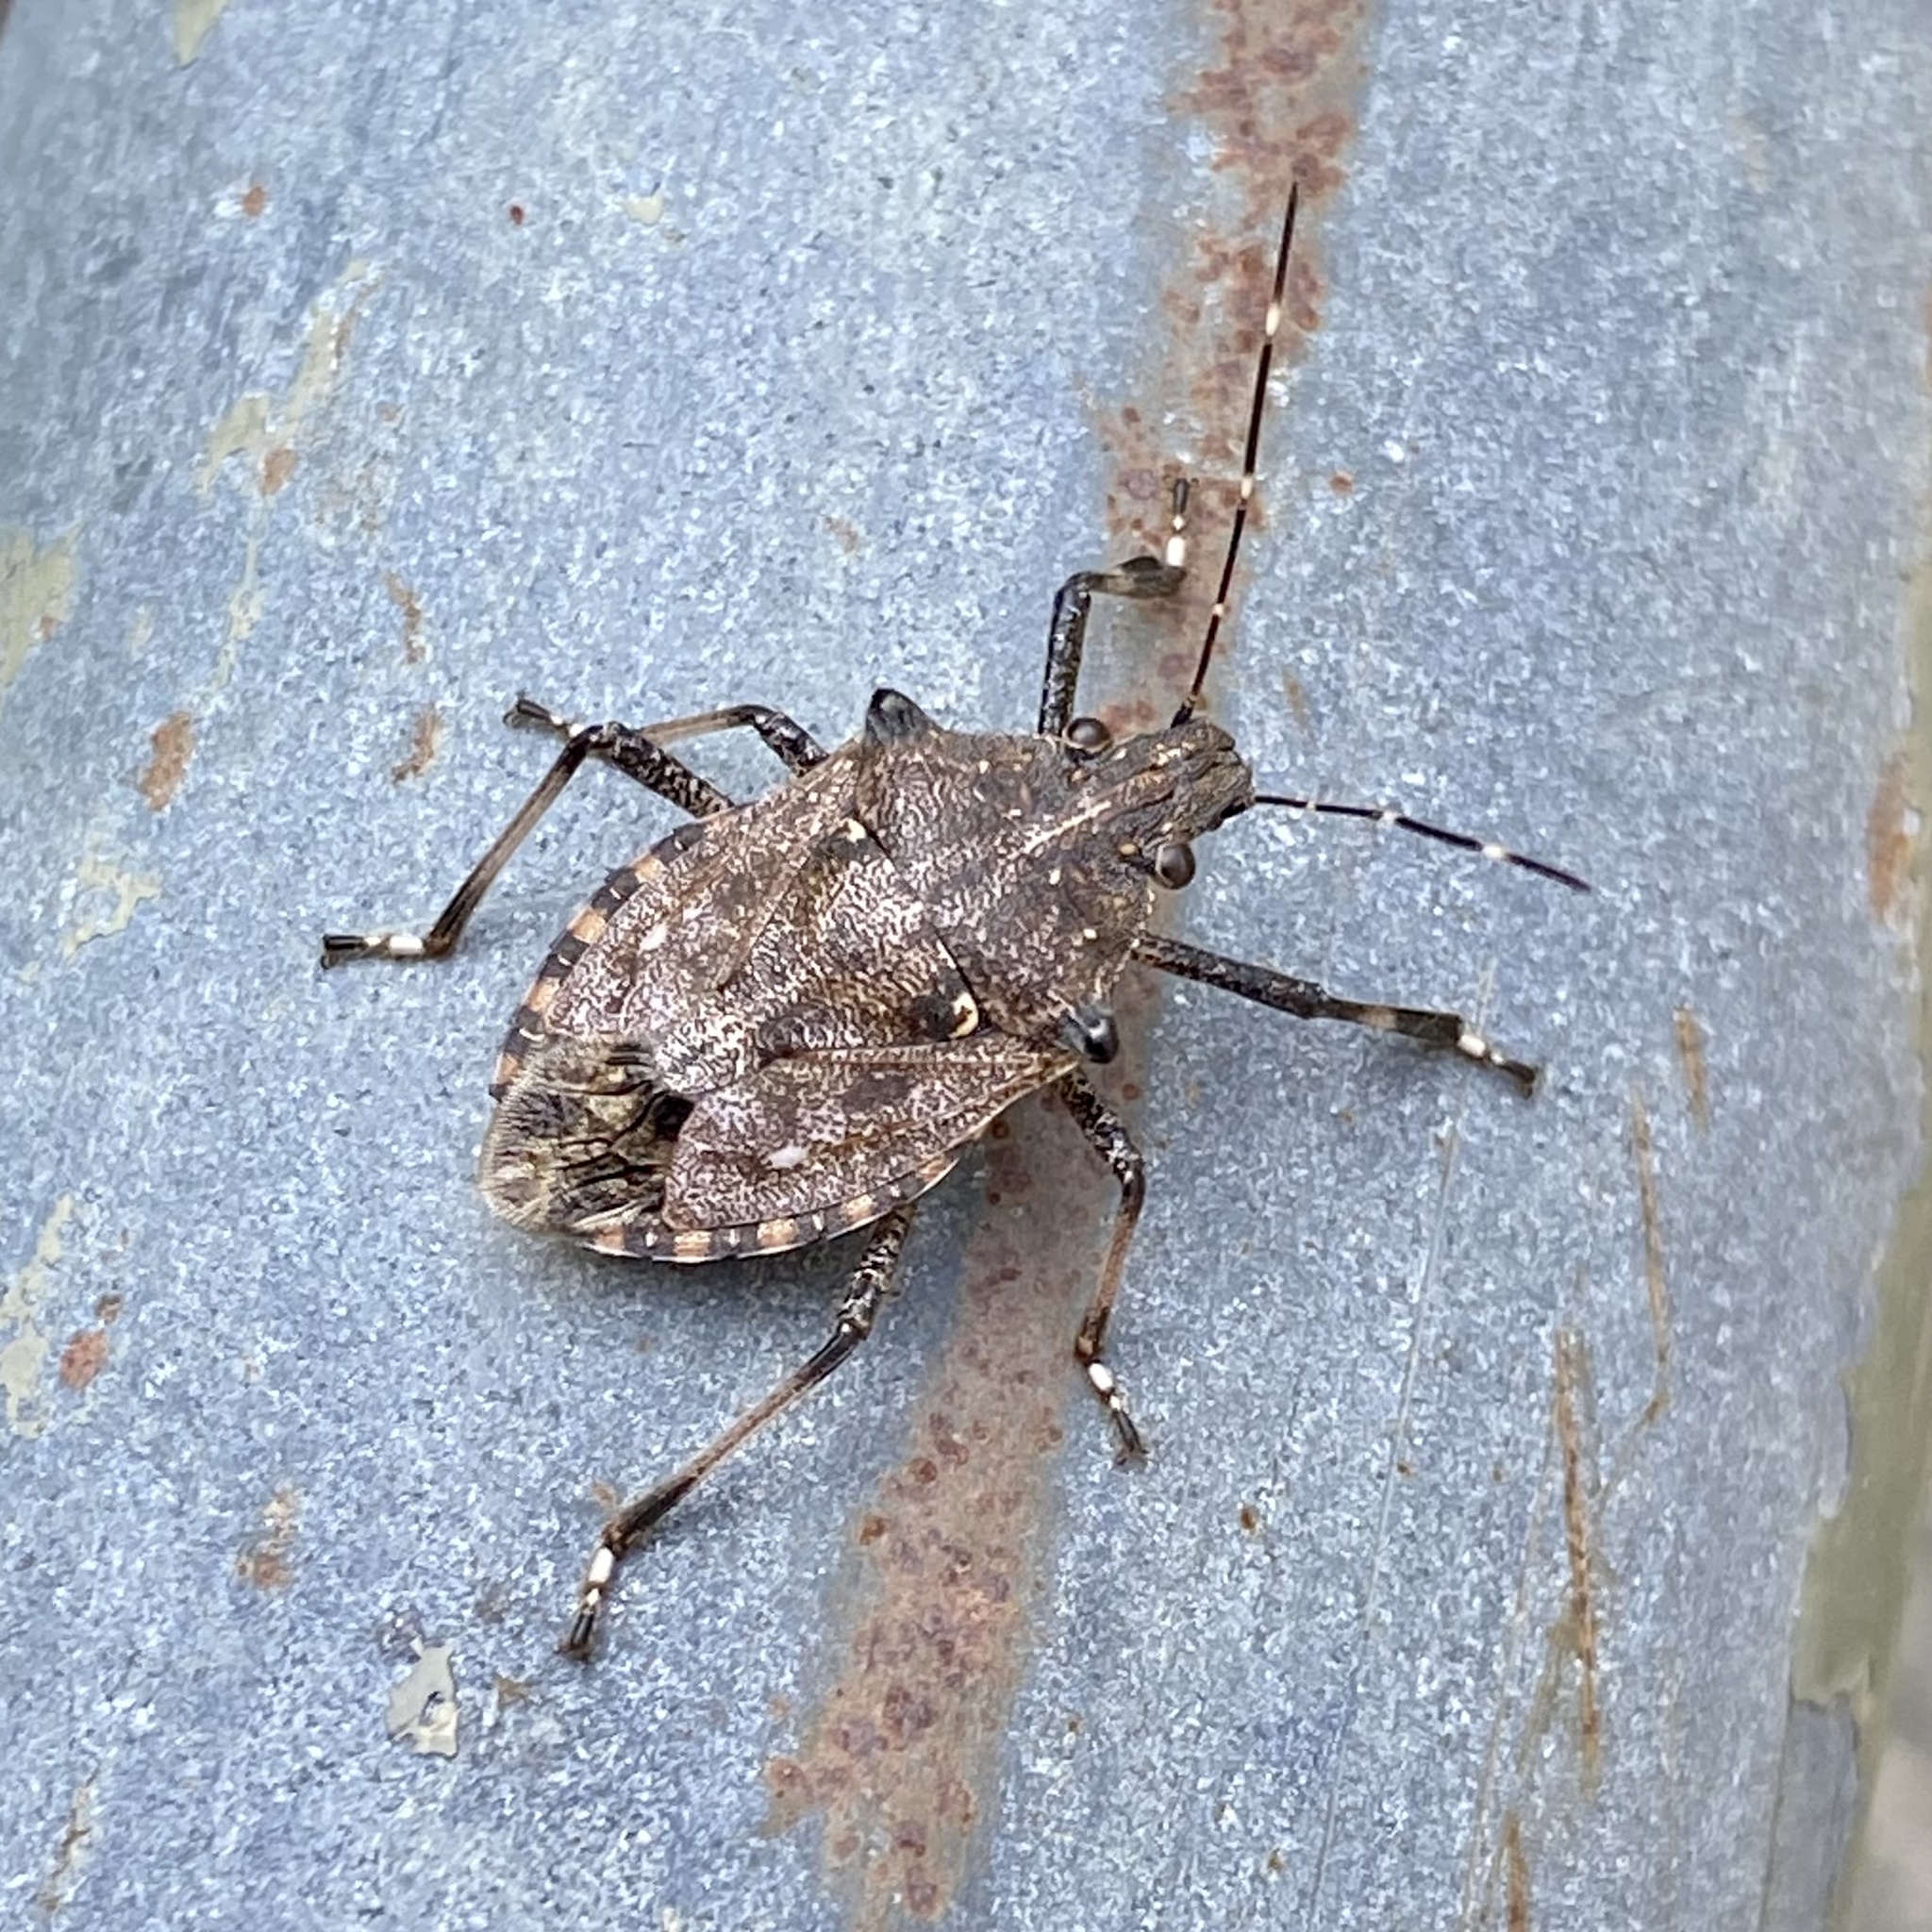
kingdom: Animalia
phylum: Arthropoda
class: Insecta
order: Hemiptera
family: Pentatomidae
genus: Dalpada
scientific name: Dalpada nodifera
